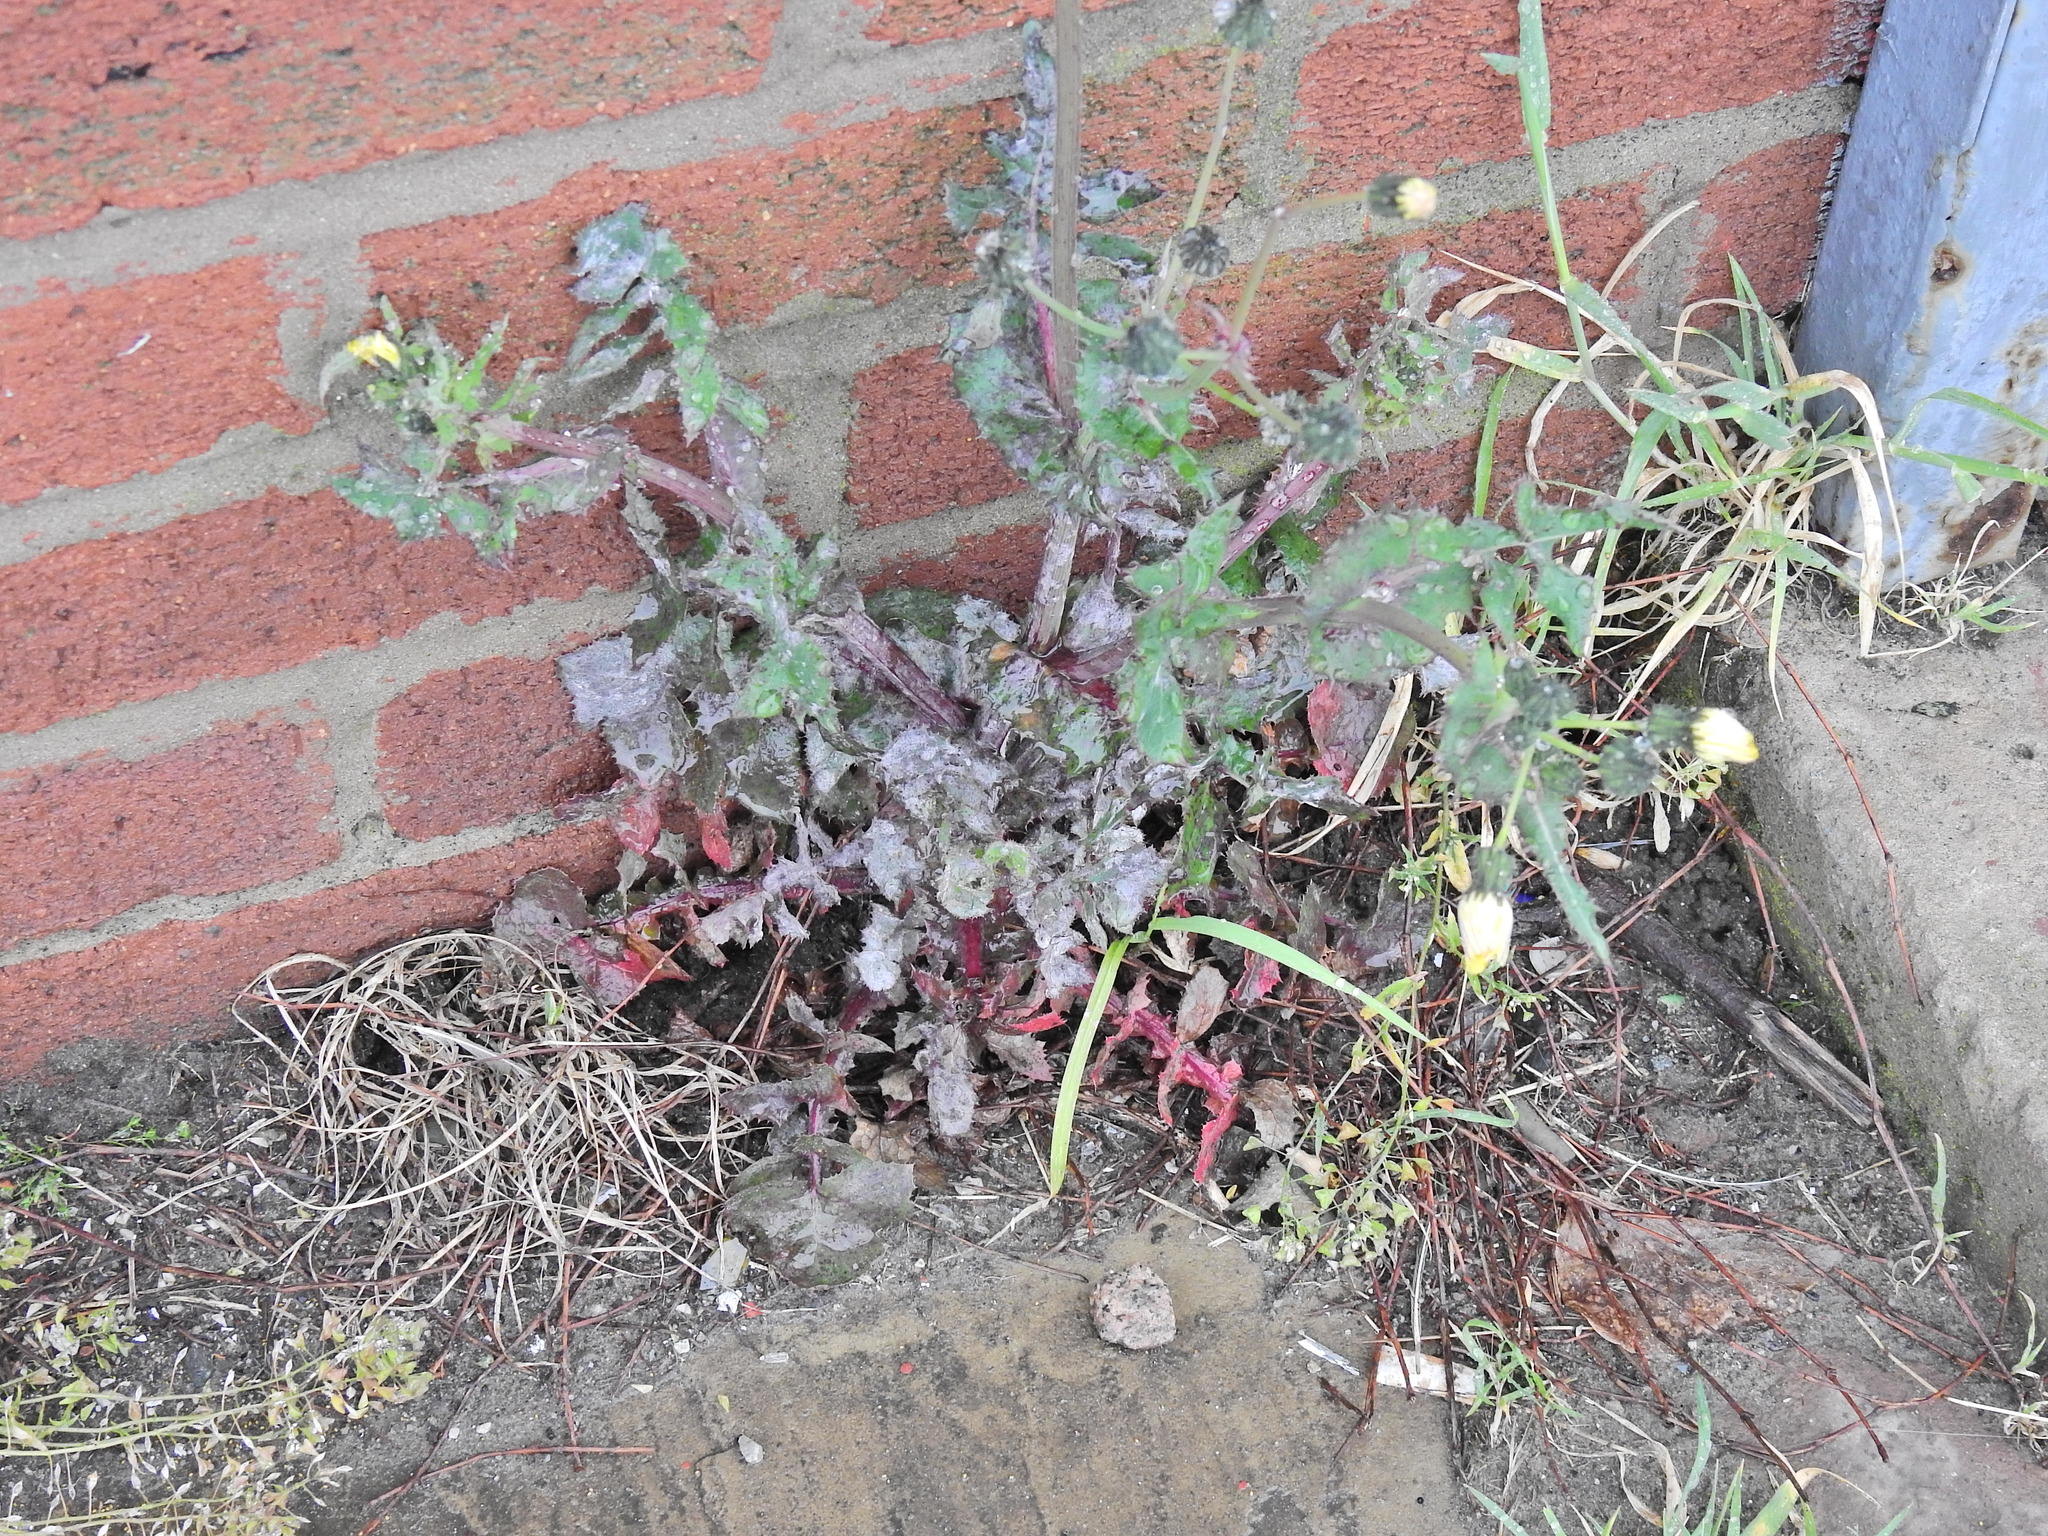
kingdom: Plantae
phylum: Tracheophyta
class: Magnoliopsida
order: Asterales
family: Asteraceae
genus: Sonchus
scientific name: Sonchus oleraceus
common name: Common sowthistle
